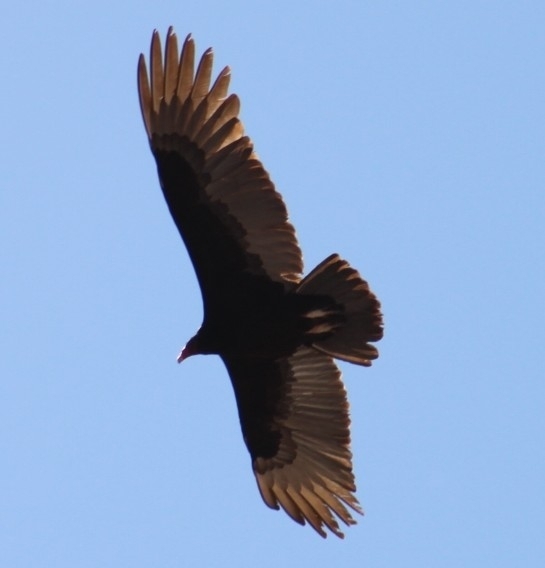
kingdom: Animalia
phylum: Chordata
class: Aves
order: Accipitriformes
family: Cathartidae
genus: Cathartes
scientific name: Cathartes aura
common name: Turkey vulture
